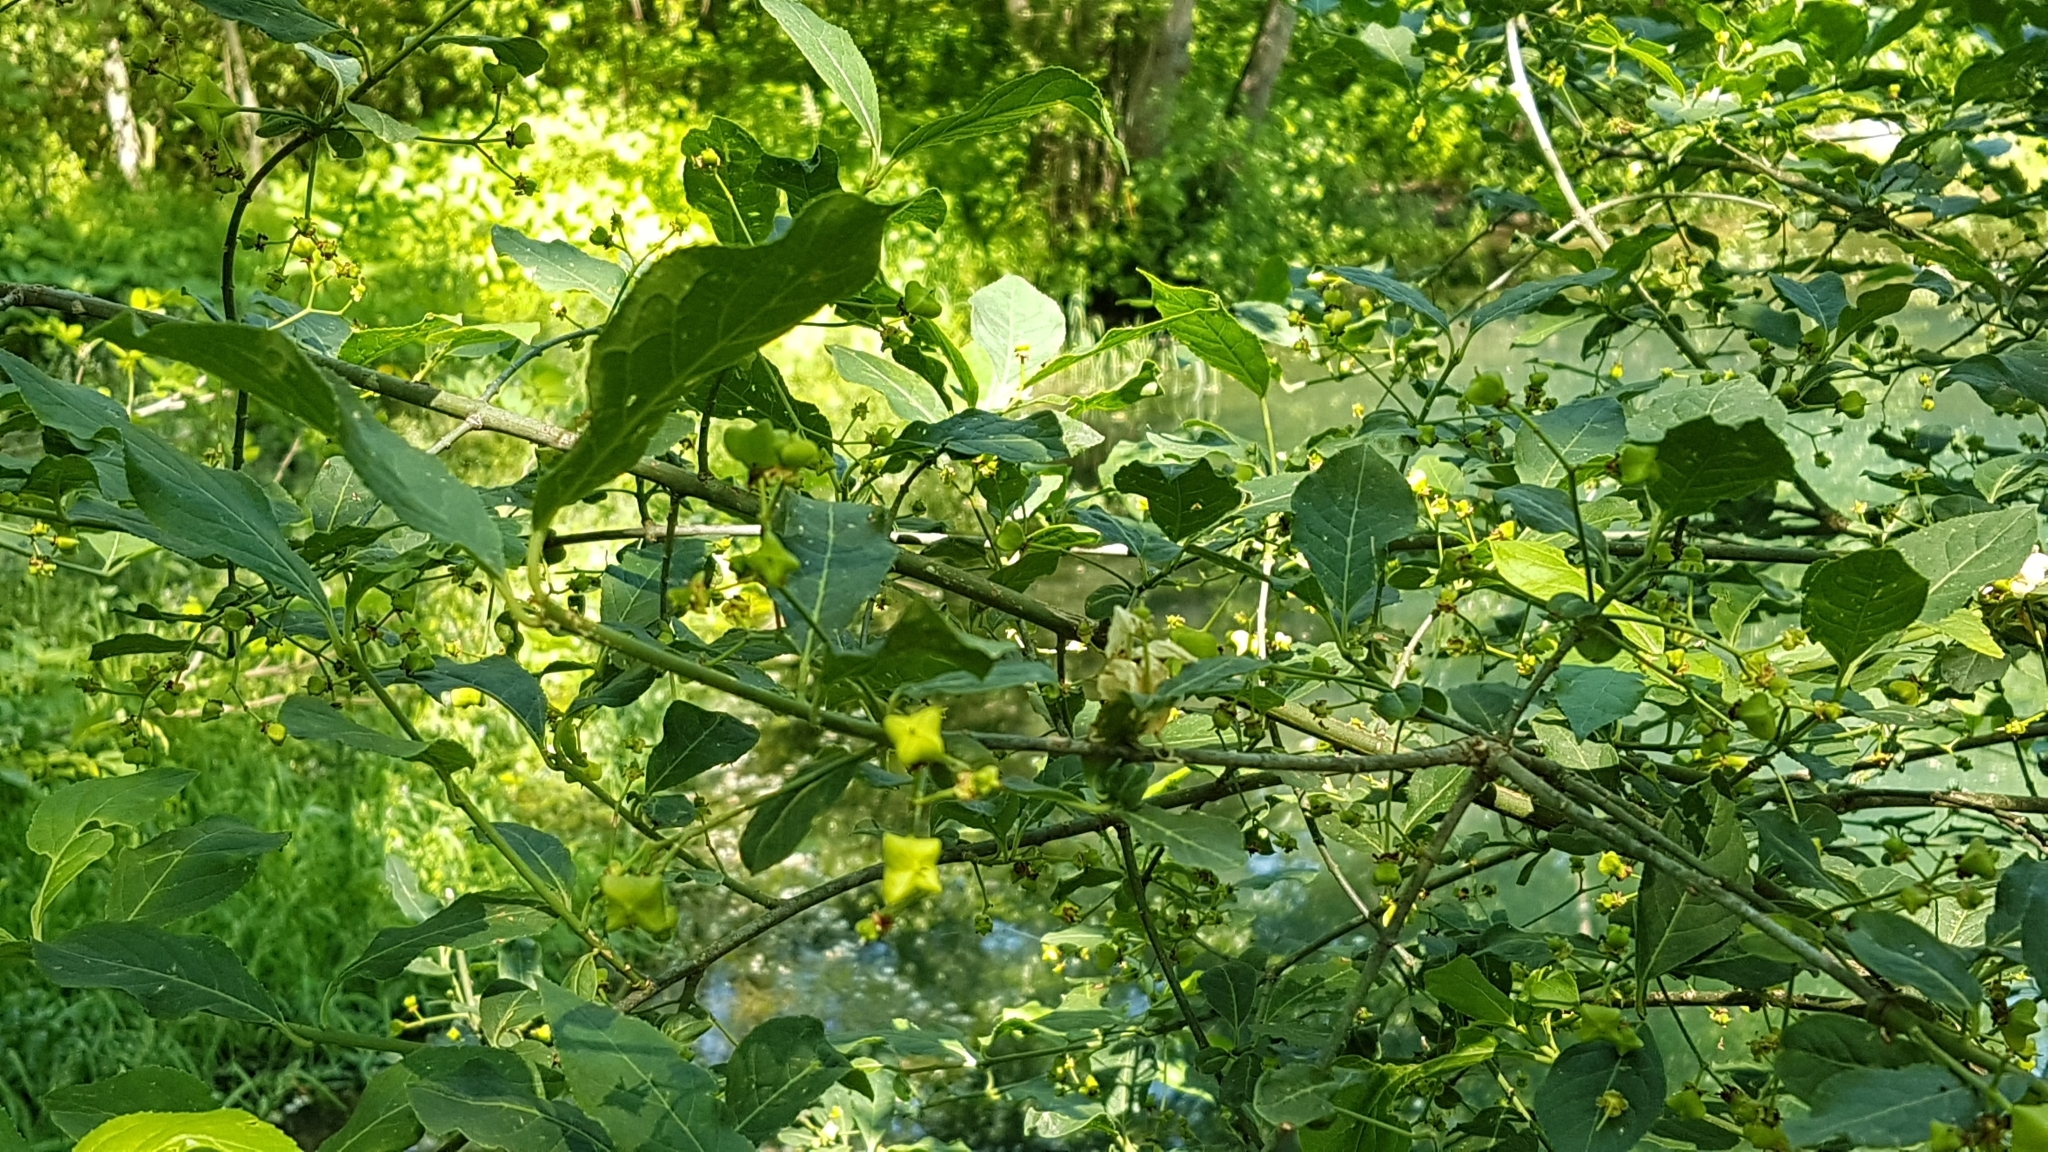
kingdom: Plantae
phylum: Tracheophyta
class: Magnoliopsida
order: Celastrales
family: Celastraceae
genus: Euonymus
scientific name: Euonymus europaeus
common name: Spindle
